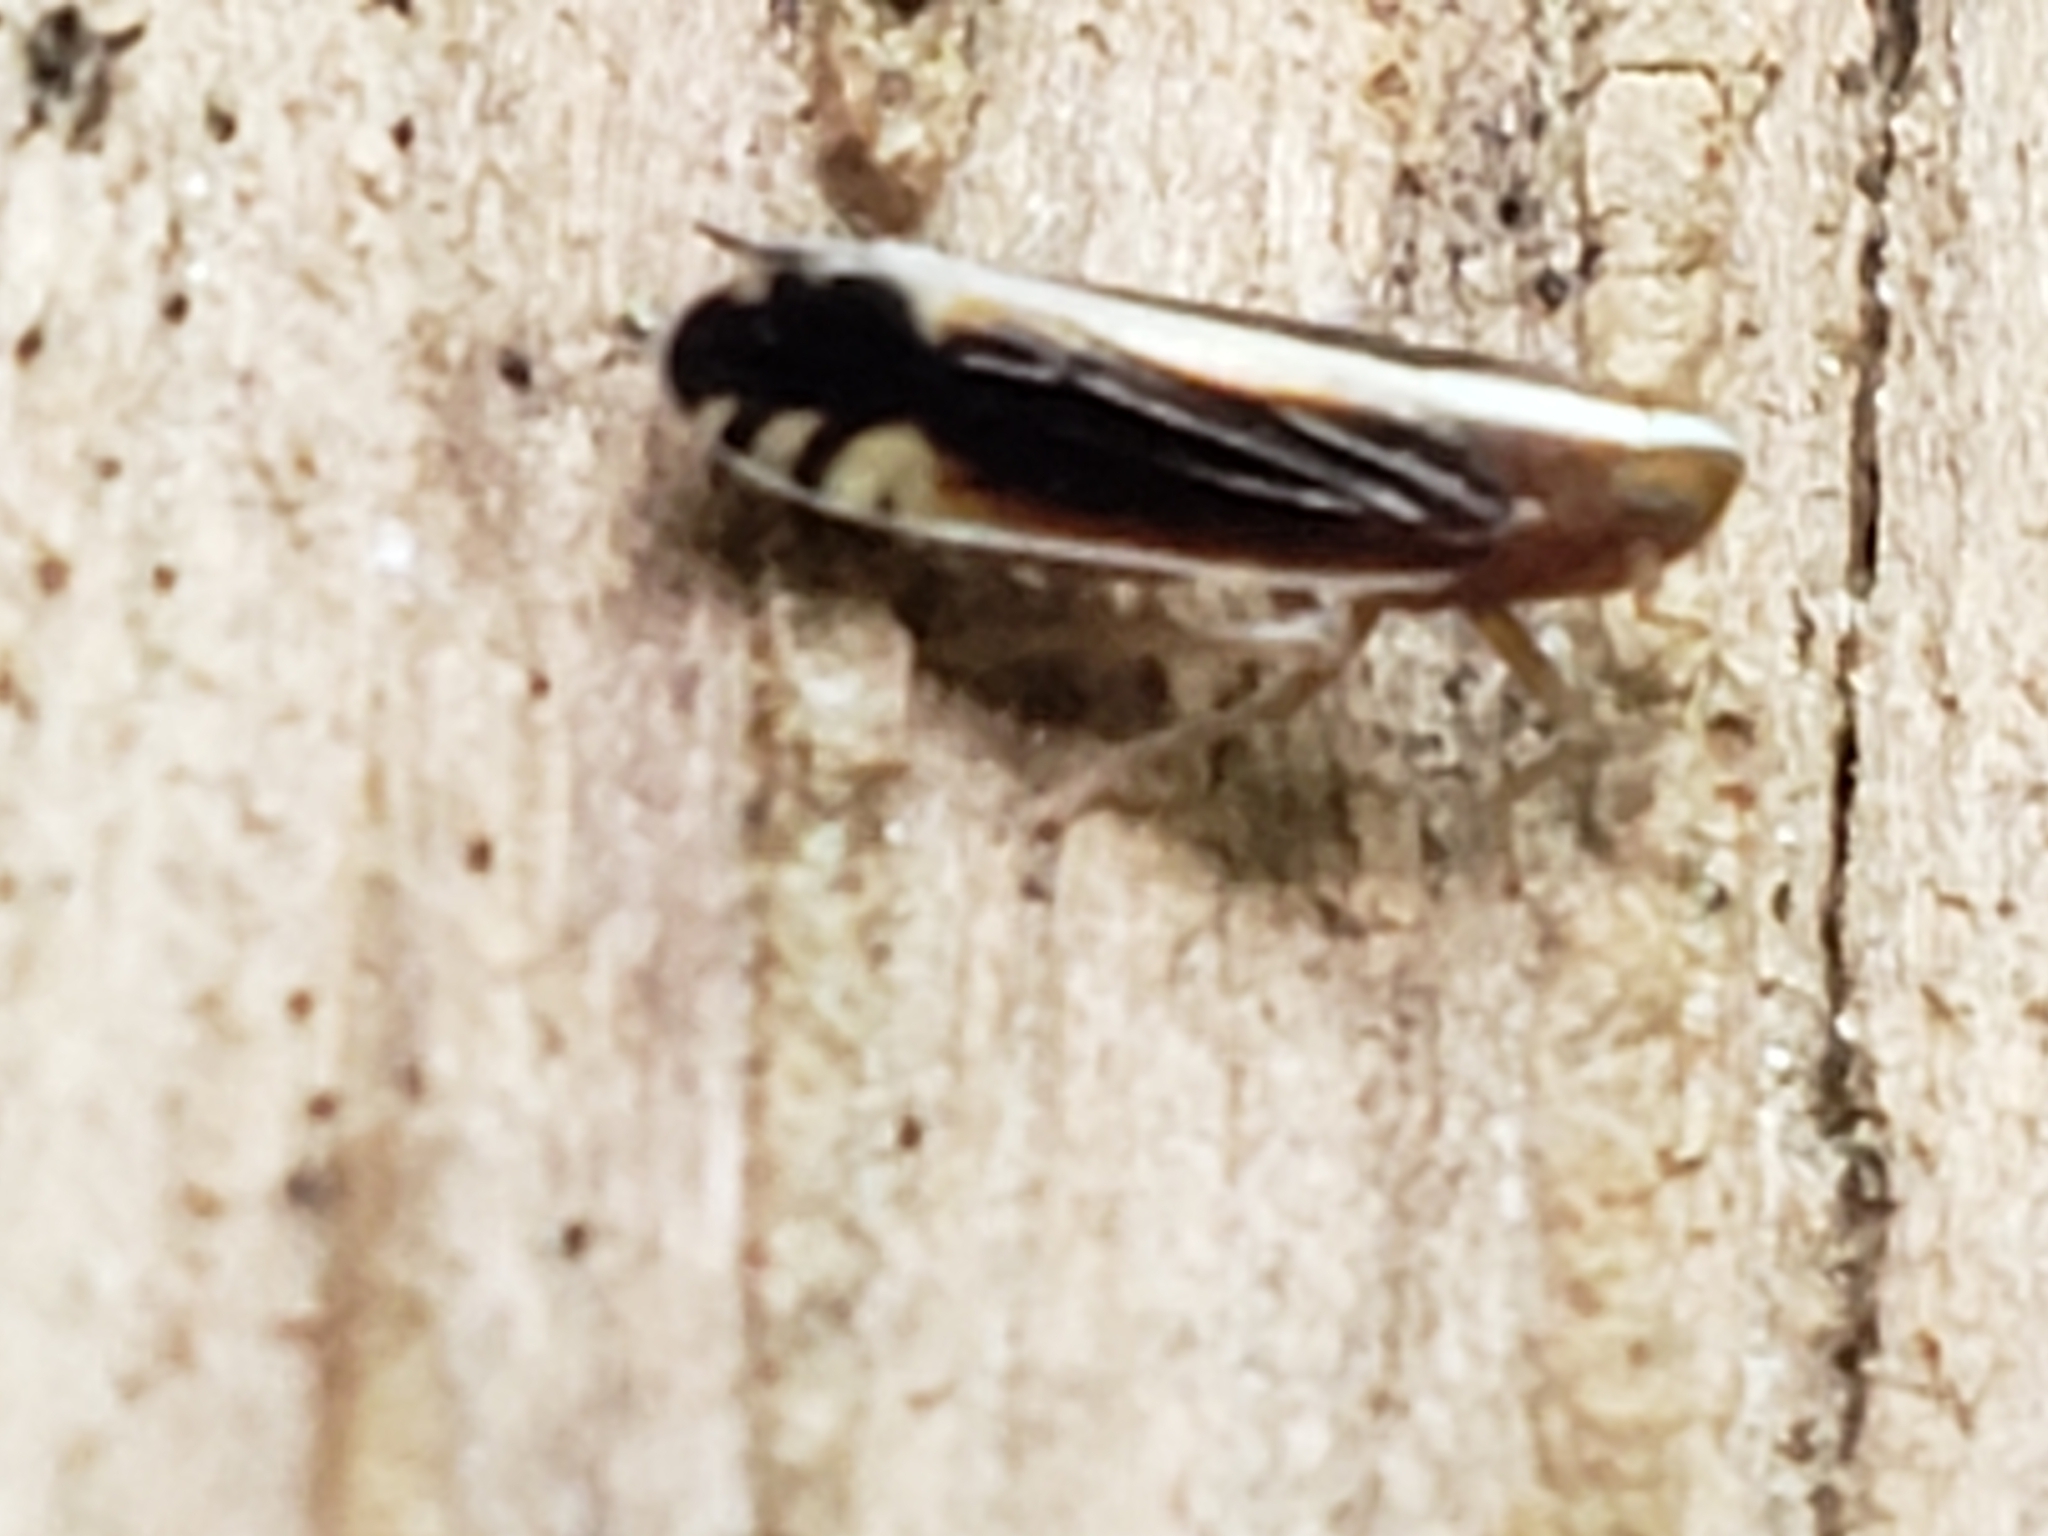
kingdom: Animalia
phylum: Arthropoda
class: Insecta
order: Hemiptera
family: Delphacidae
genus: Stenocranus
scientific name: Stenocranus brunneus
